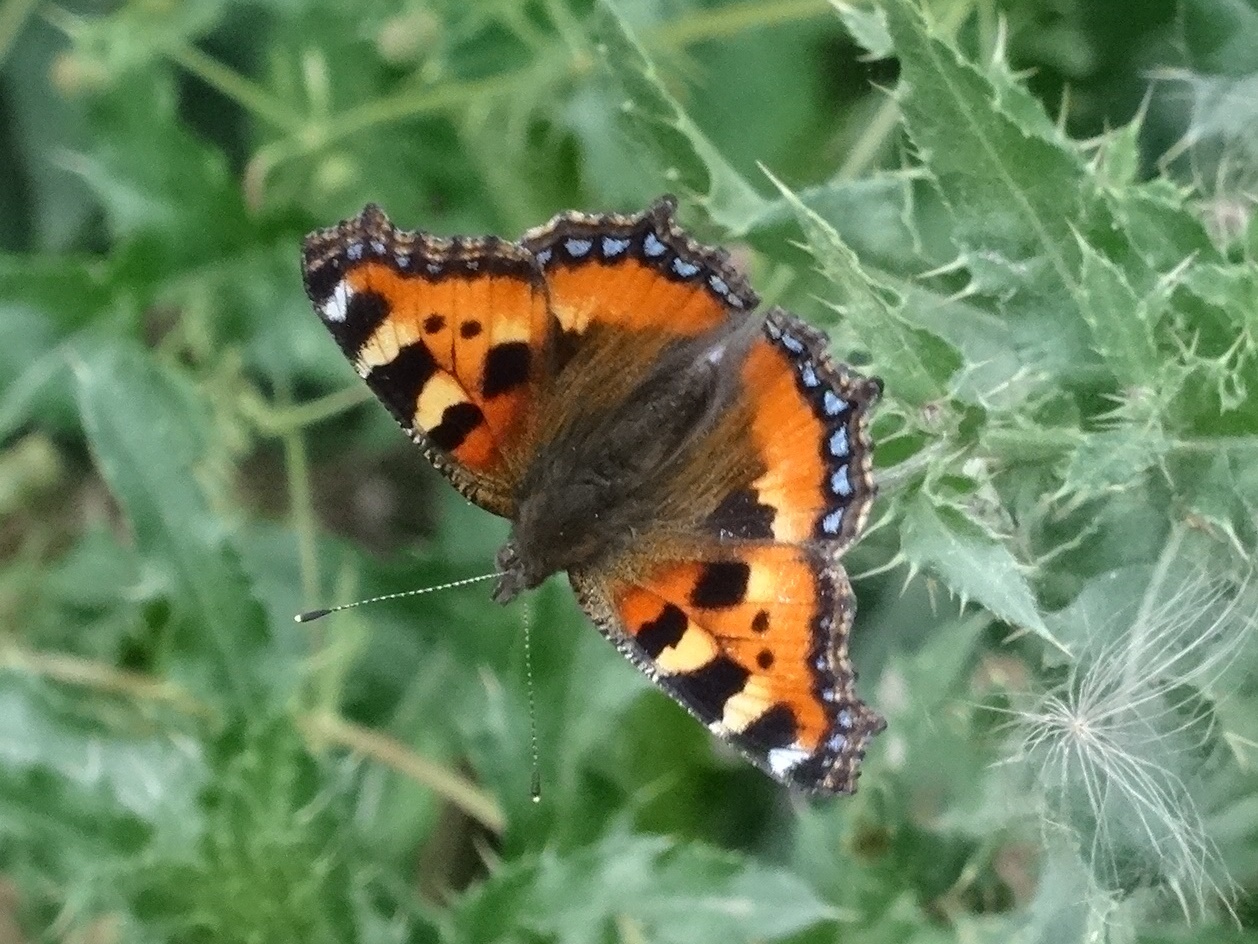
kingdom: Animalia
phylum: Arthropoda
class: Insecta
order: Lepidoptera
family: Nymphalidae
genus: Aglais
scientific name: Aglais urticae
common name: Small tortoiseshell
